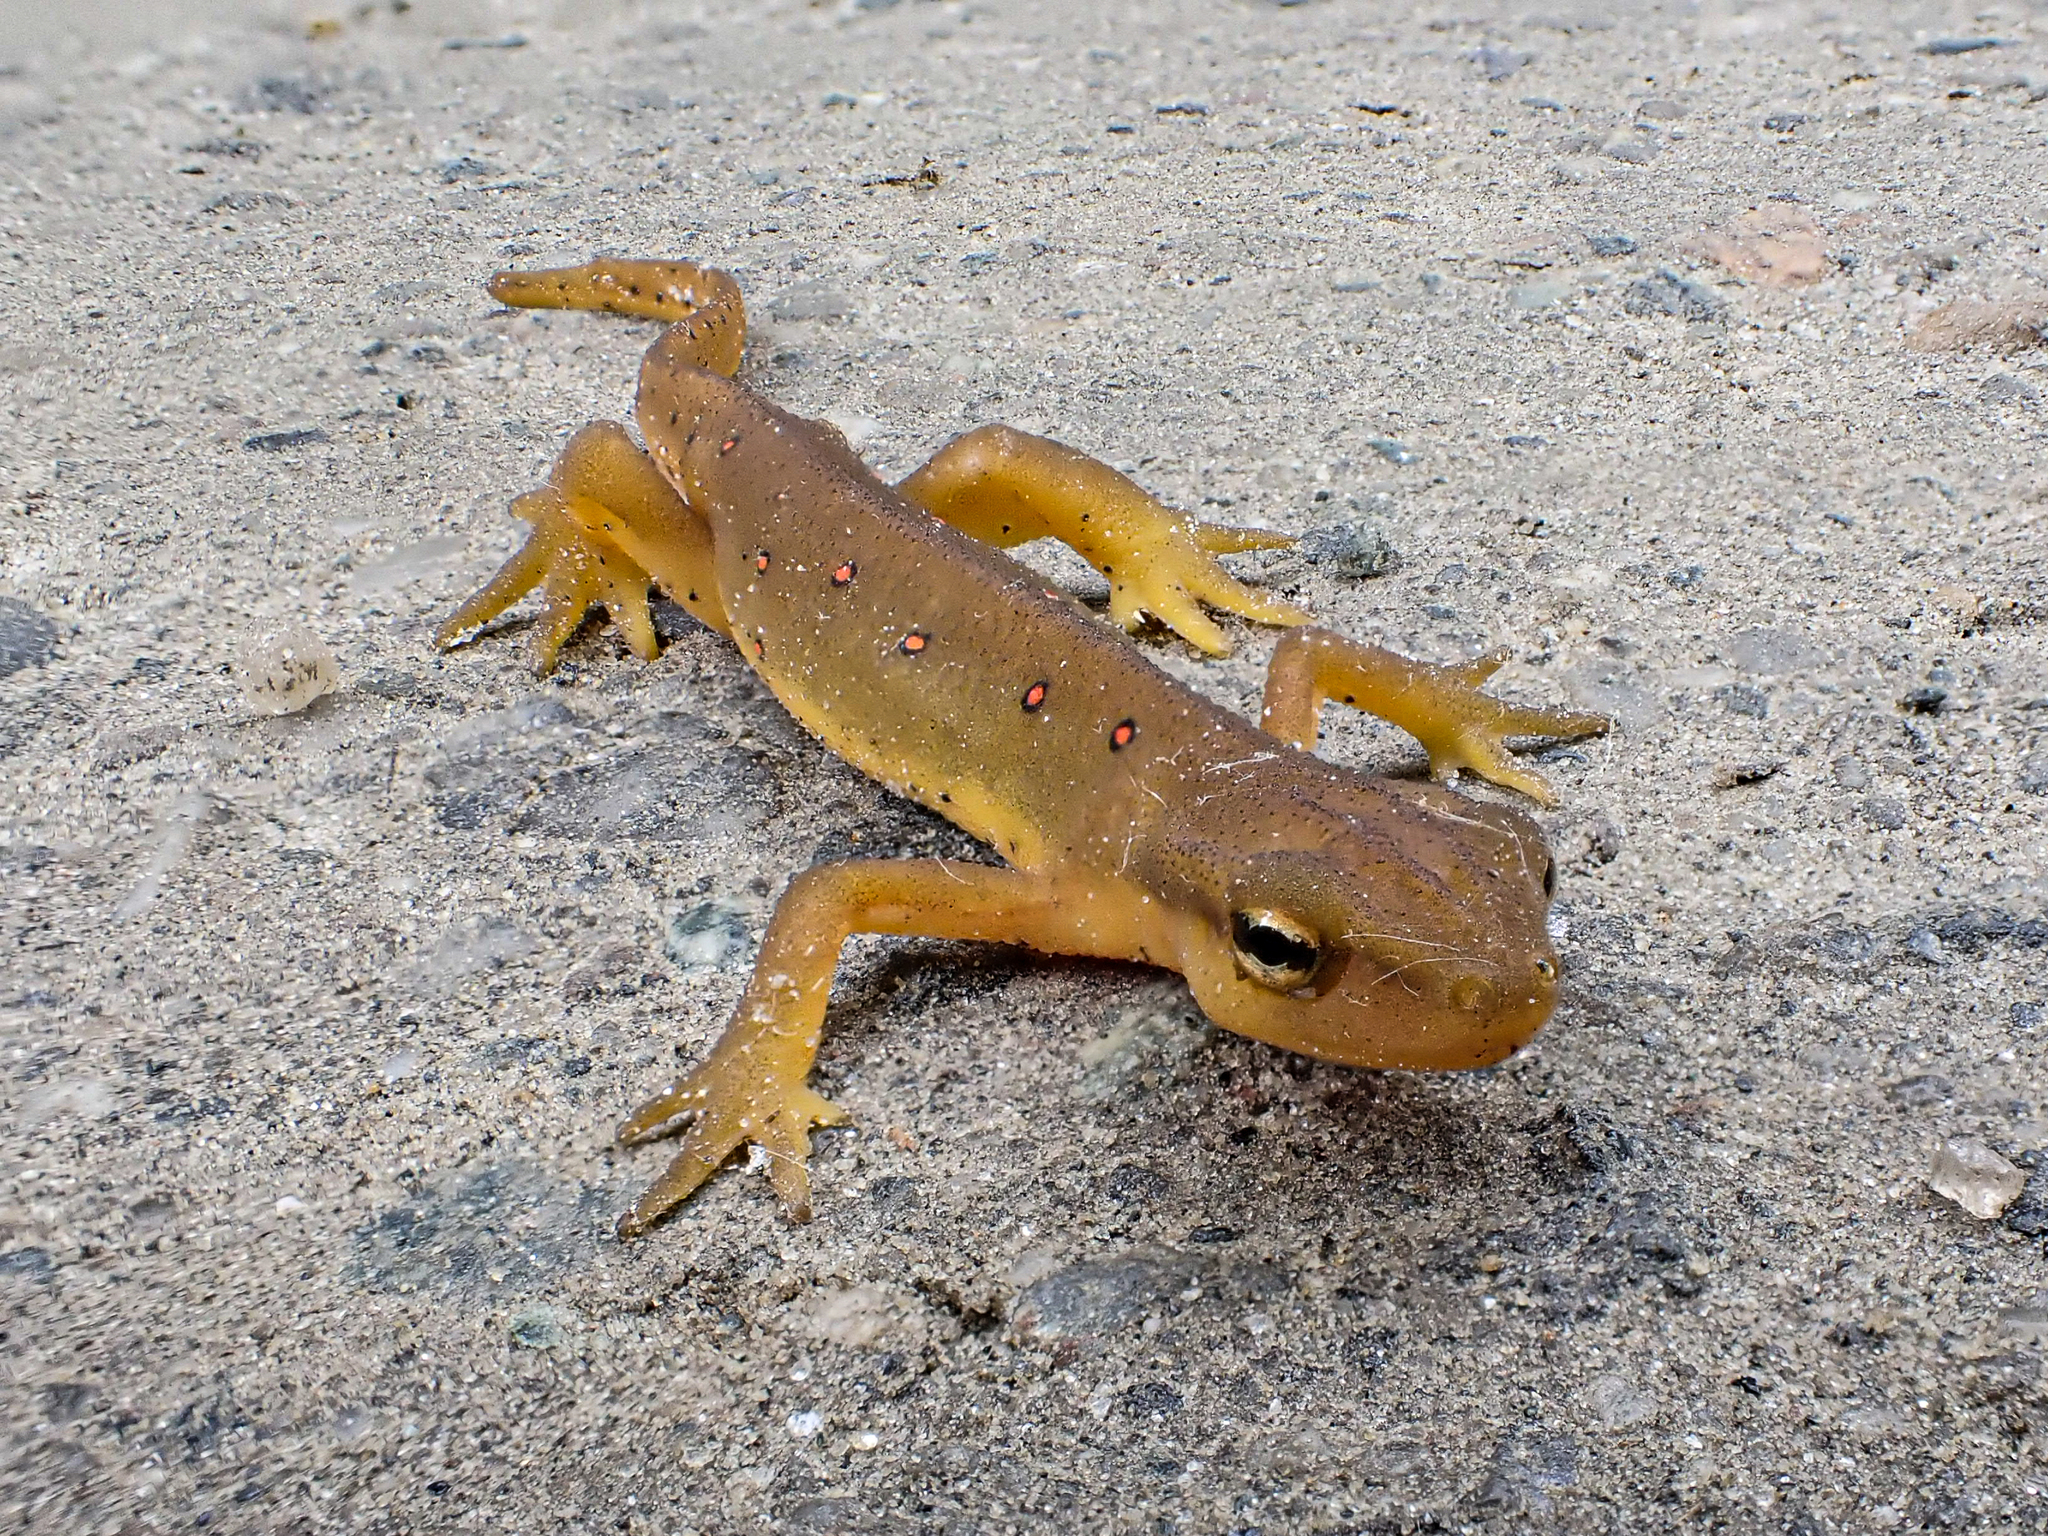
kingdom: Animalia
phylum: Chordata
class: Amphibia
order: Caudata
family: Salamandridae
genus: Notophthalmus
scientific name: Notophthalmus viridescens
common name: Eastern newt
